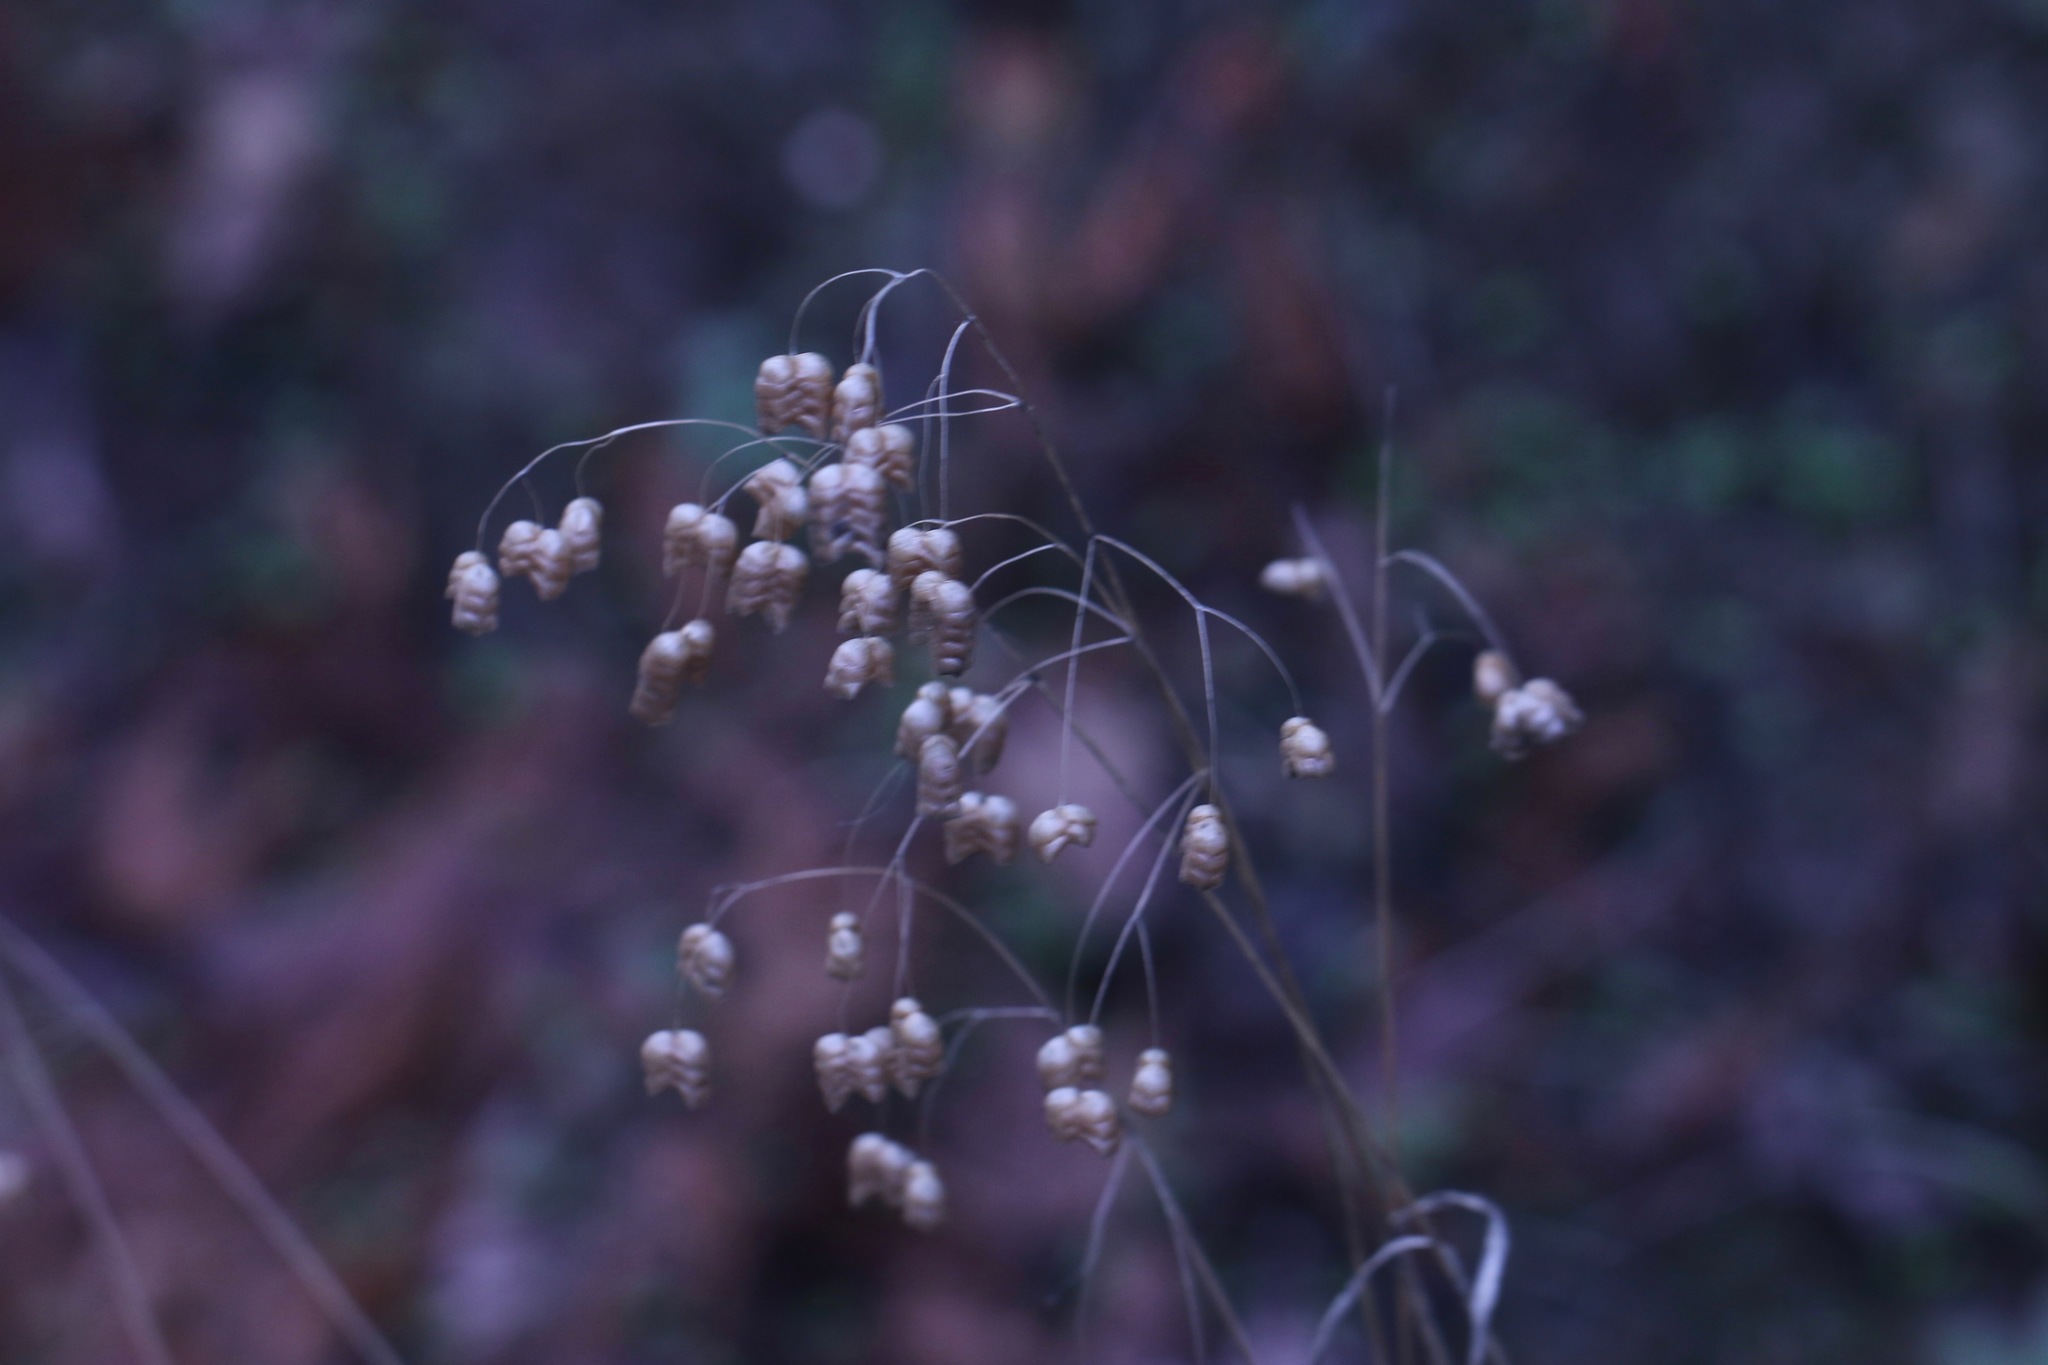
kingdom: Plantae
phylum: Tracheophyta
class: Liliopsida
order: Poales
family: Poaceae
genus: Briza
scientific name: Briza maxima
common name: Big quakinggrass
